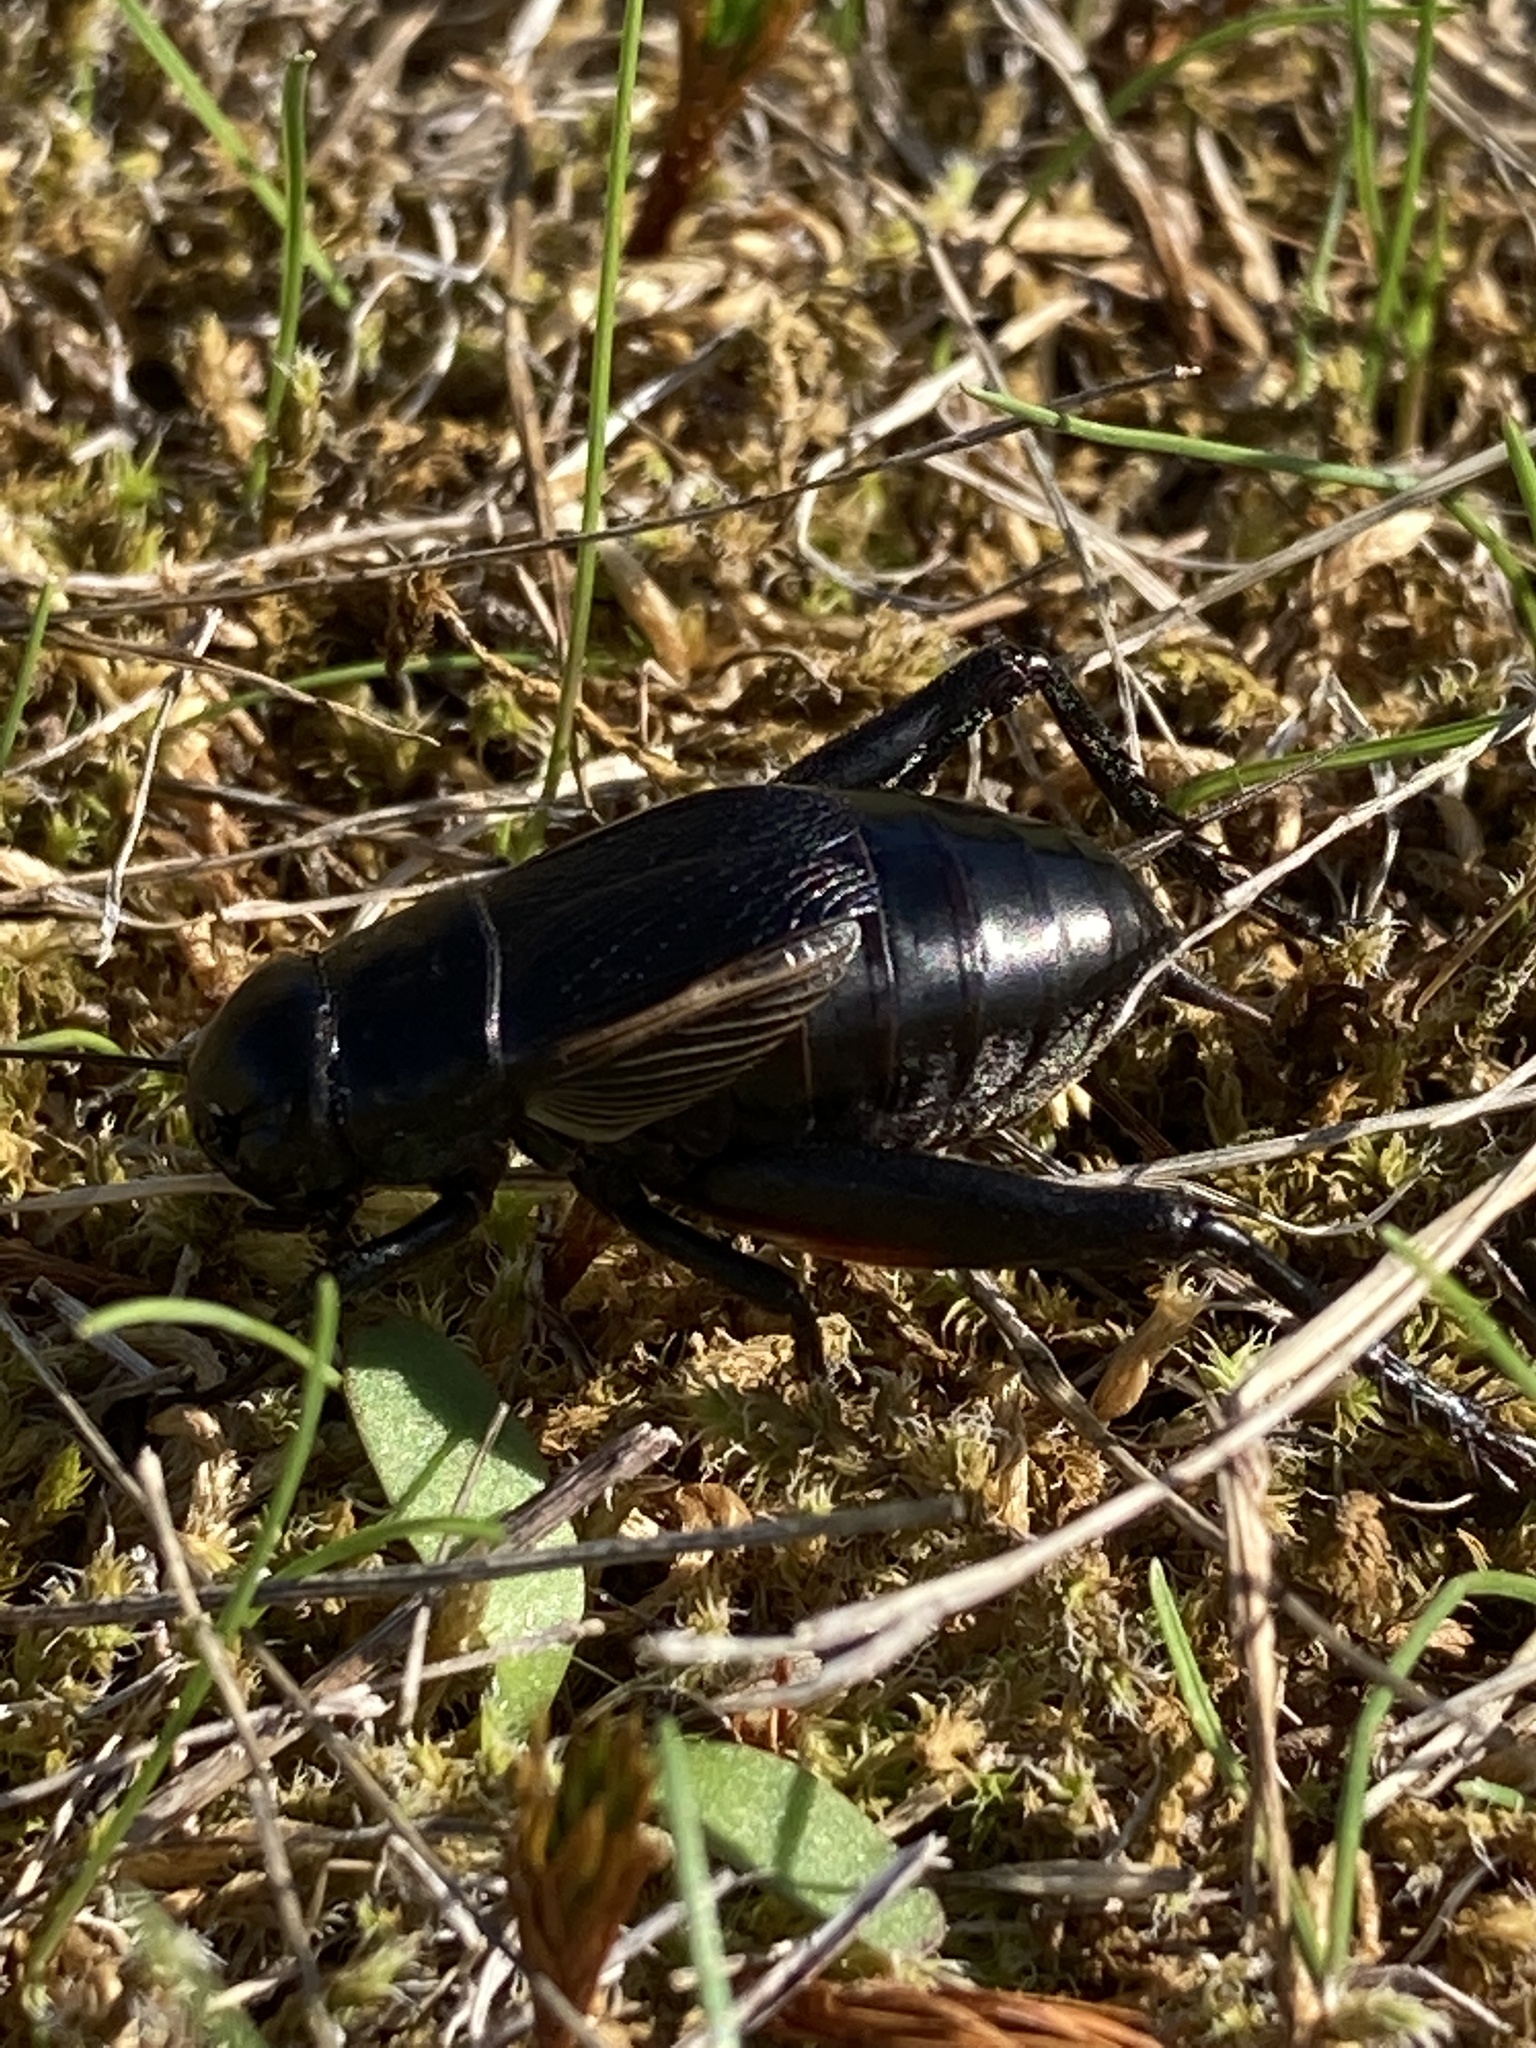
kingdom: Animalia
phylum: Arthropoda
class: Insecta
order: Orthoptera
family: Gryllidae
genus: Gryllus
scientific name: Gryllus pennsylvanicus
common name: Fall field cricket
